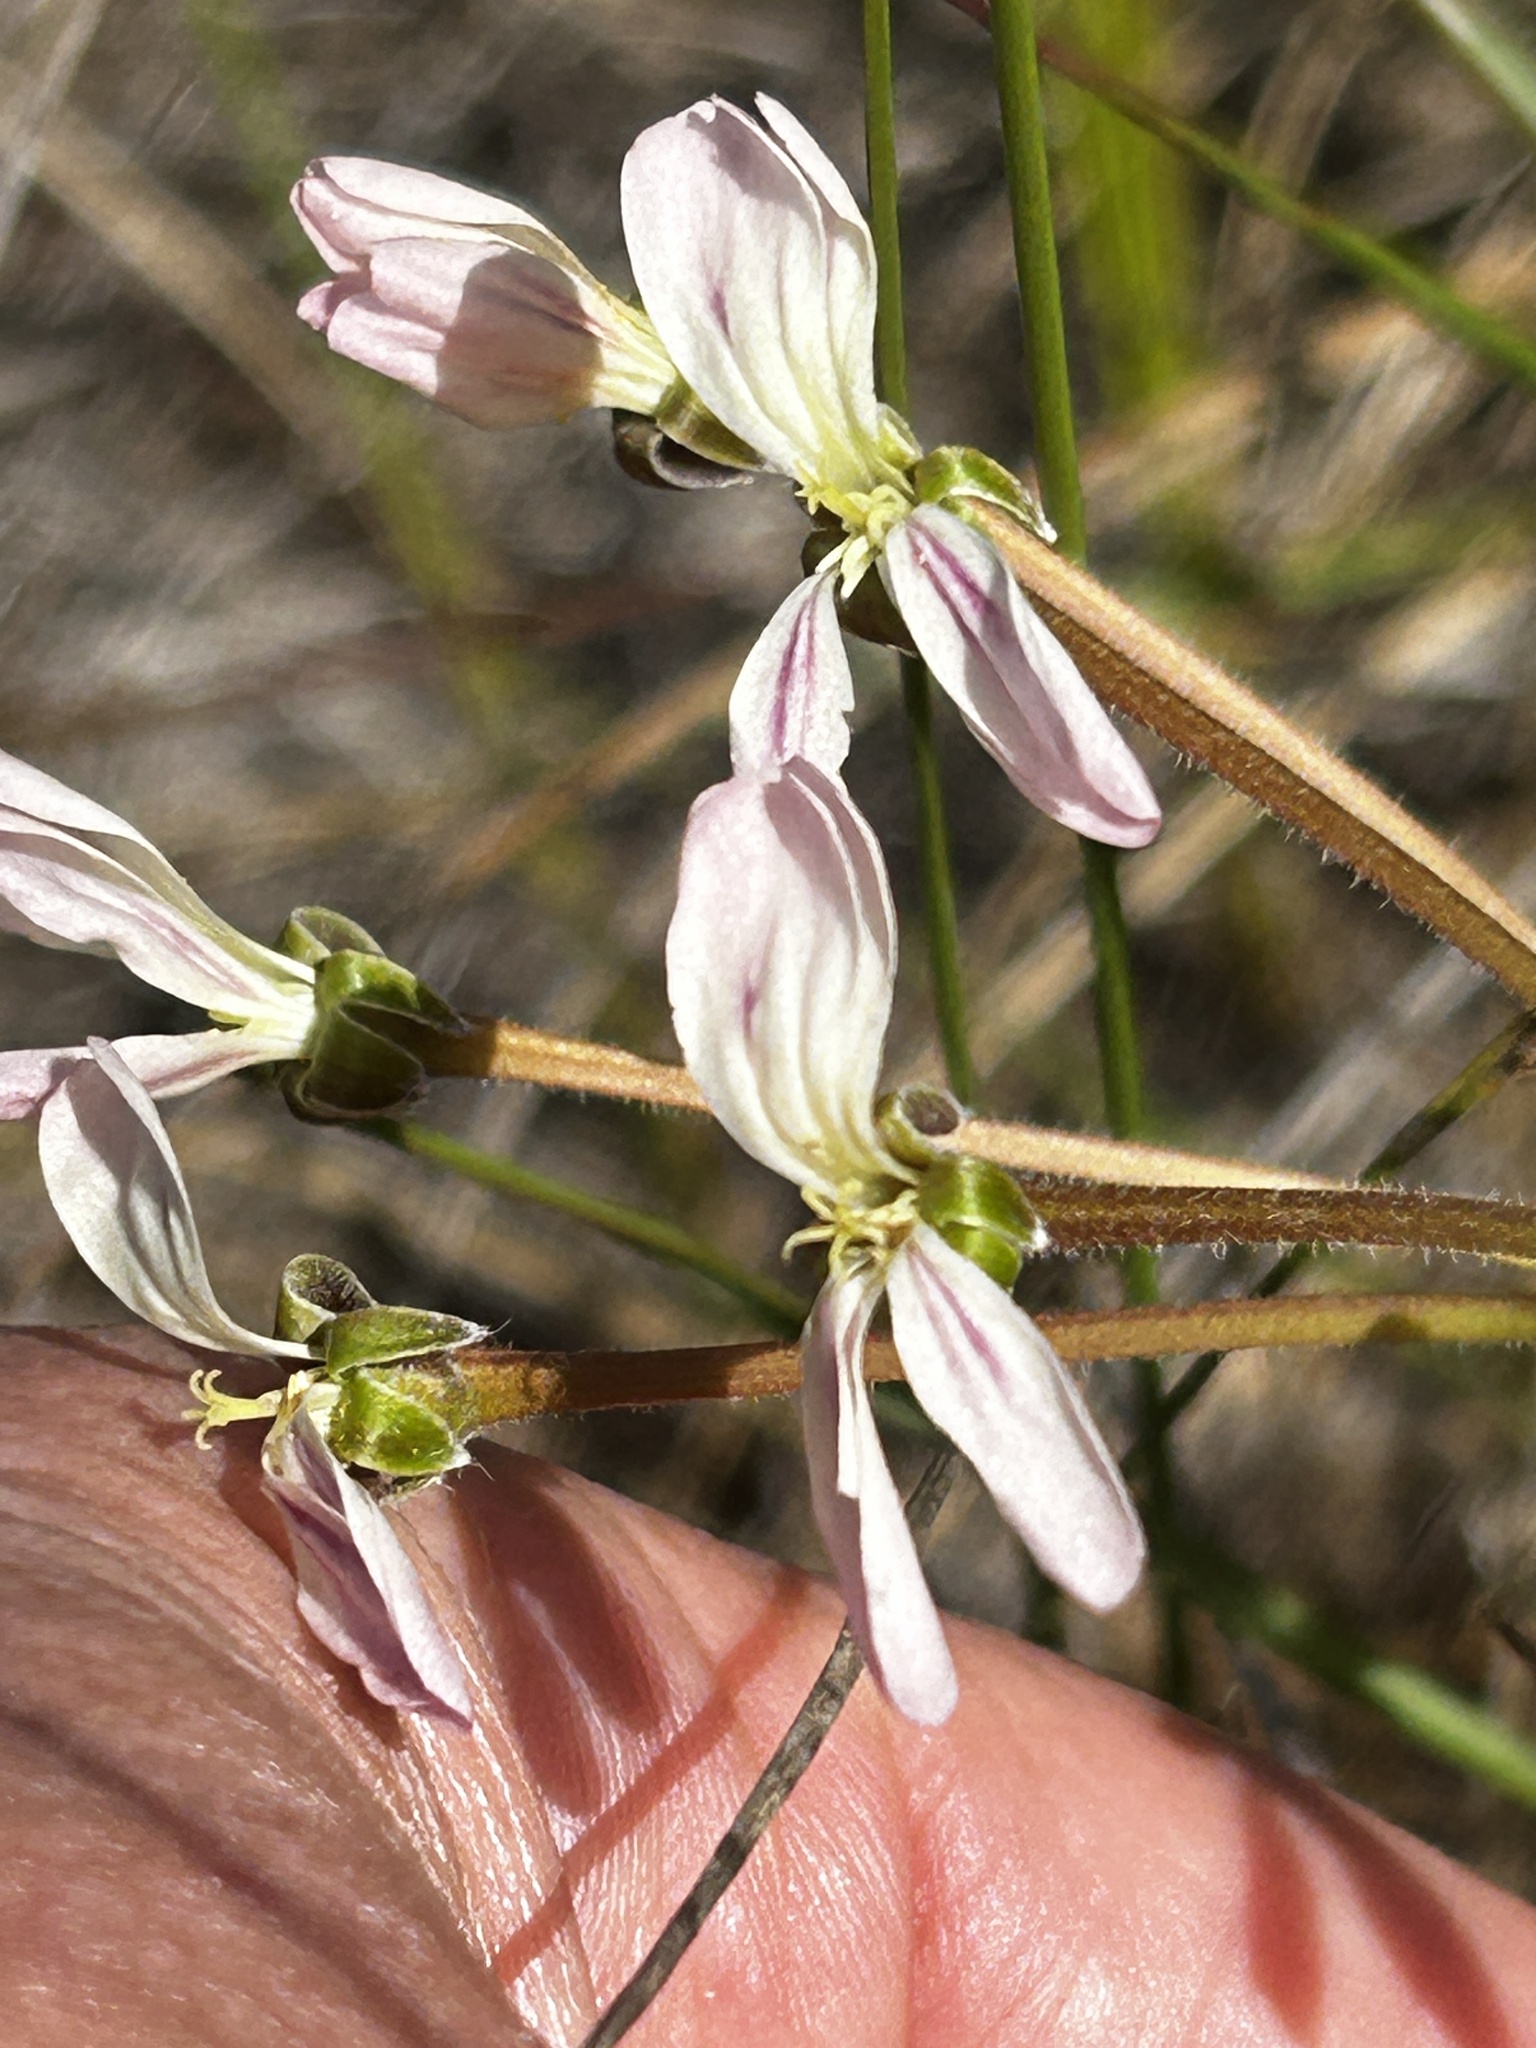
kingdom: Plantae
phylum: Tracheophyta
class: Magnoliopsida
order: Geraniales
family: Geraniaceae
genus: Pelargonium
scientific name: Pelargonium triste
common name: Night-scent pelargonium
